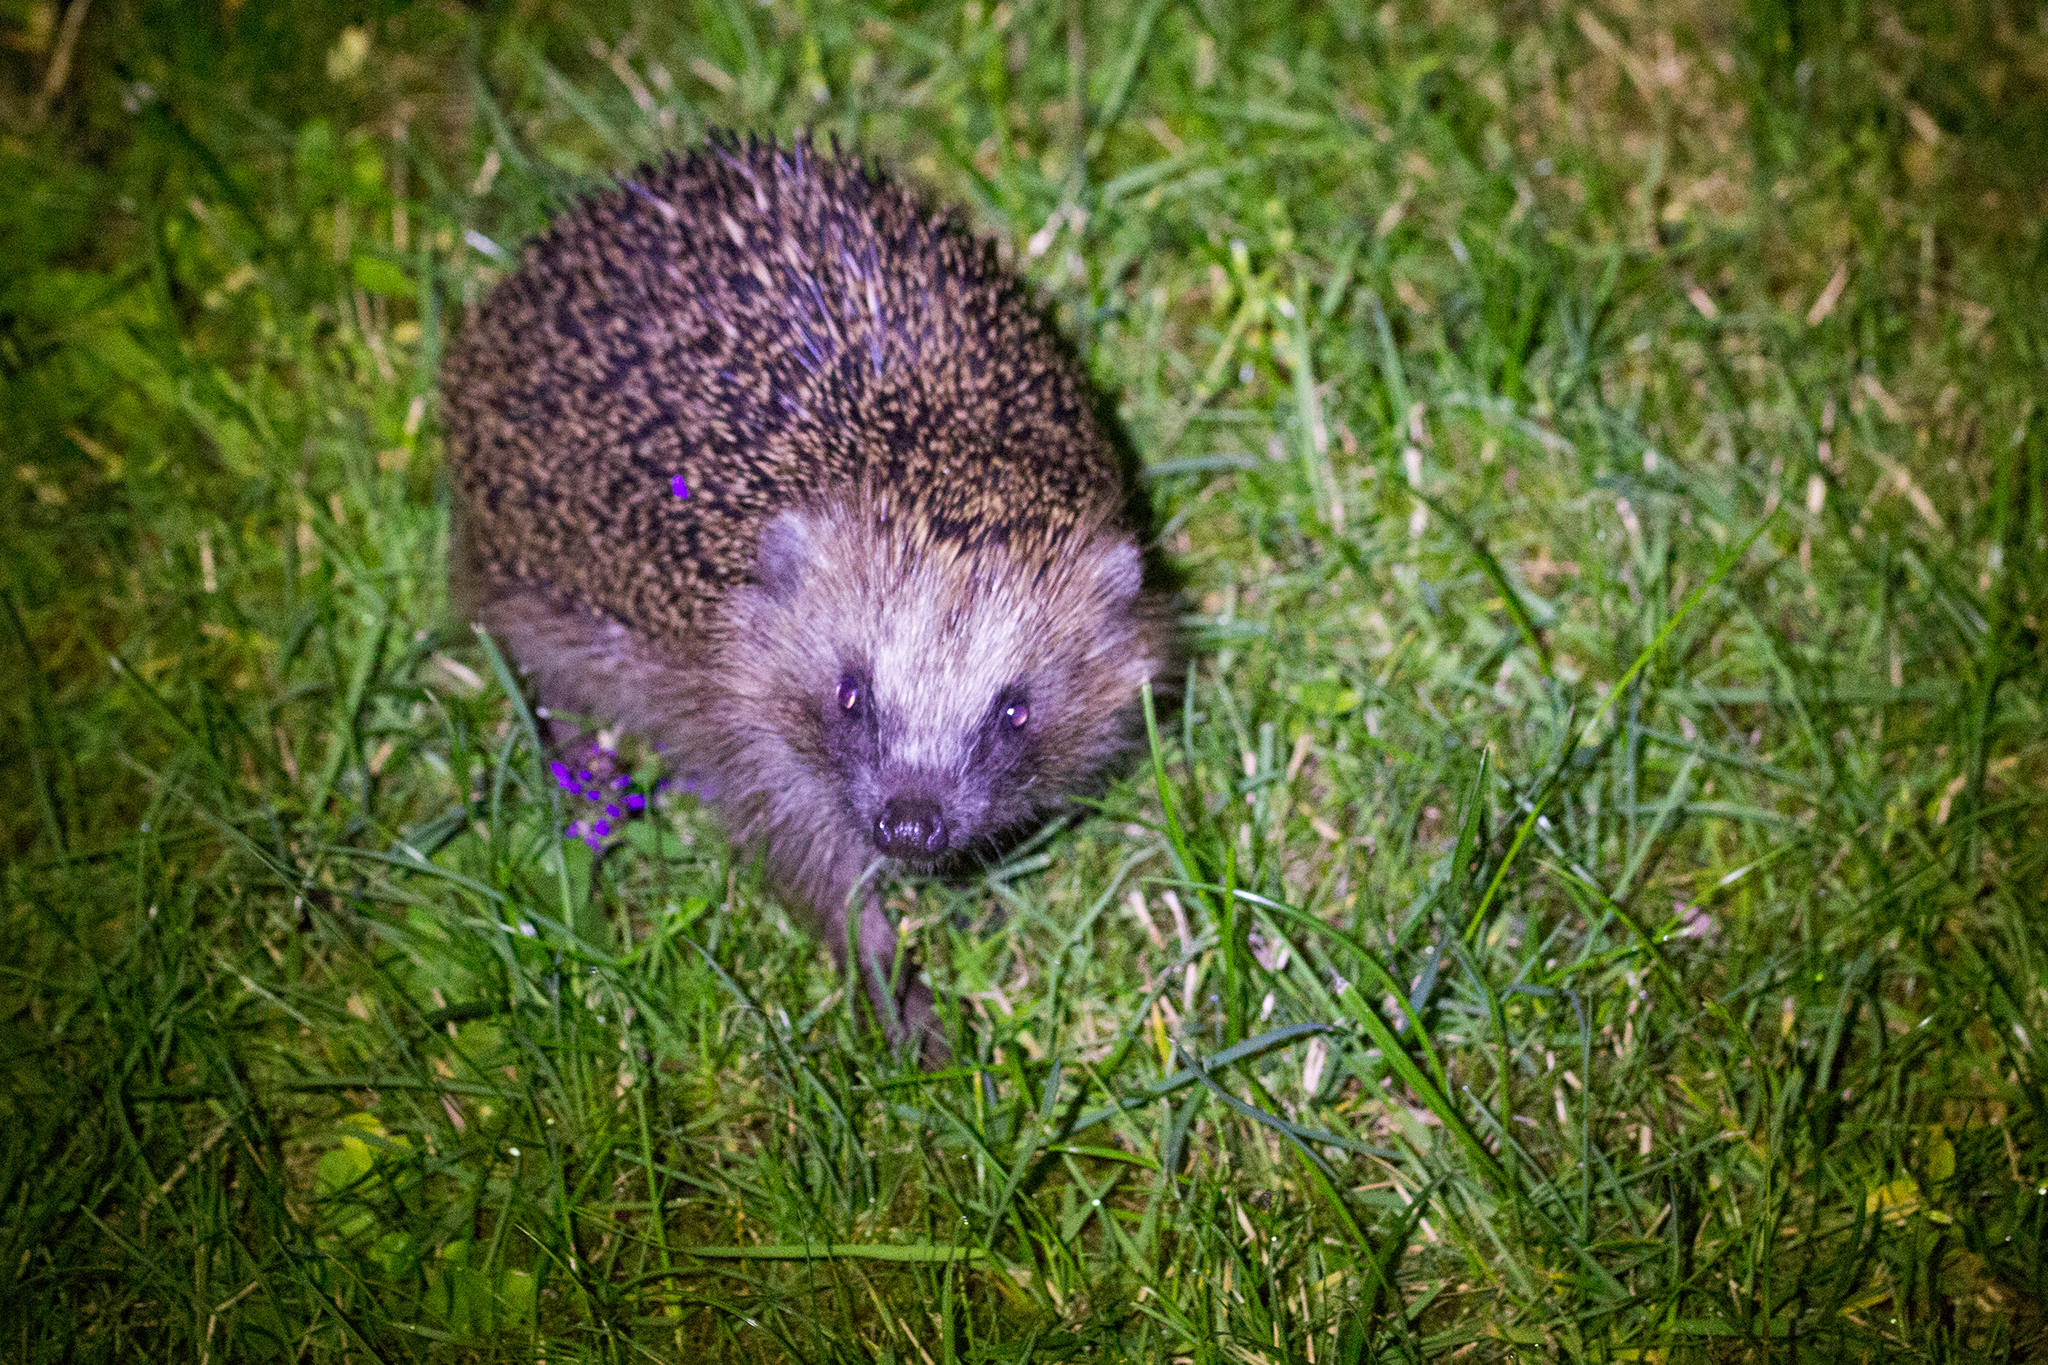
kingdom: Animalia
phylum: Chordata
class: Mammalia
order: Erinaceomorpha
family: Erinaceidae
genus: Erinaceus
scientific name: Erinaceus europaeus
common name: West european hedgehog
